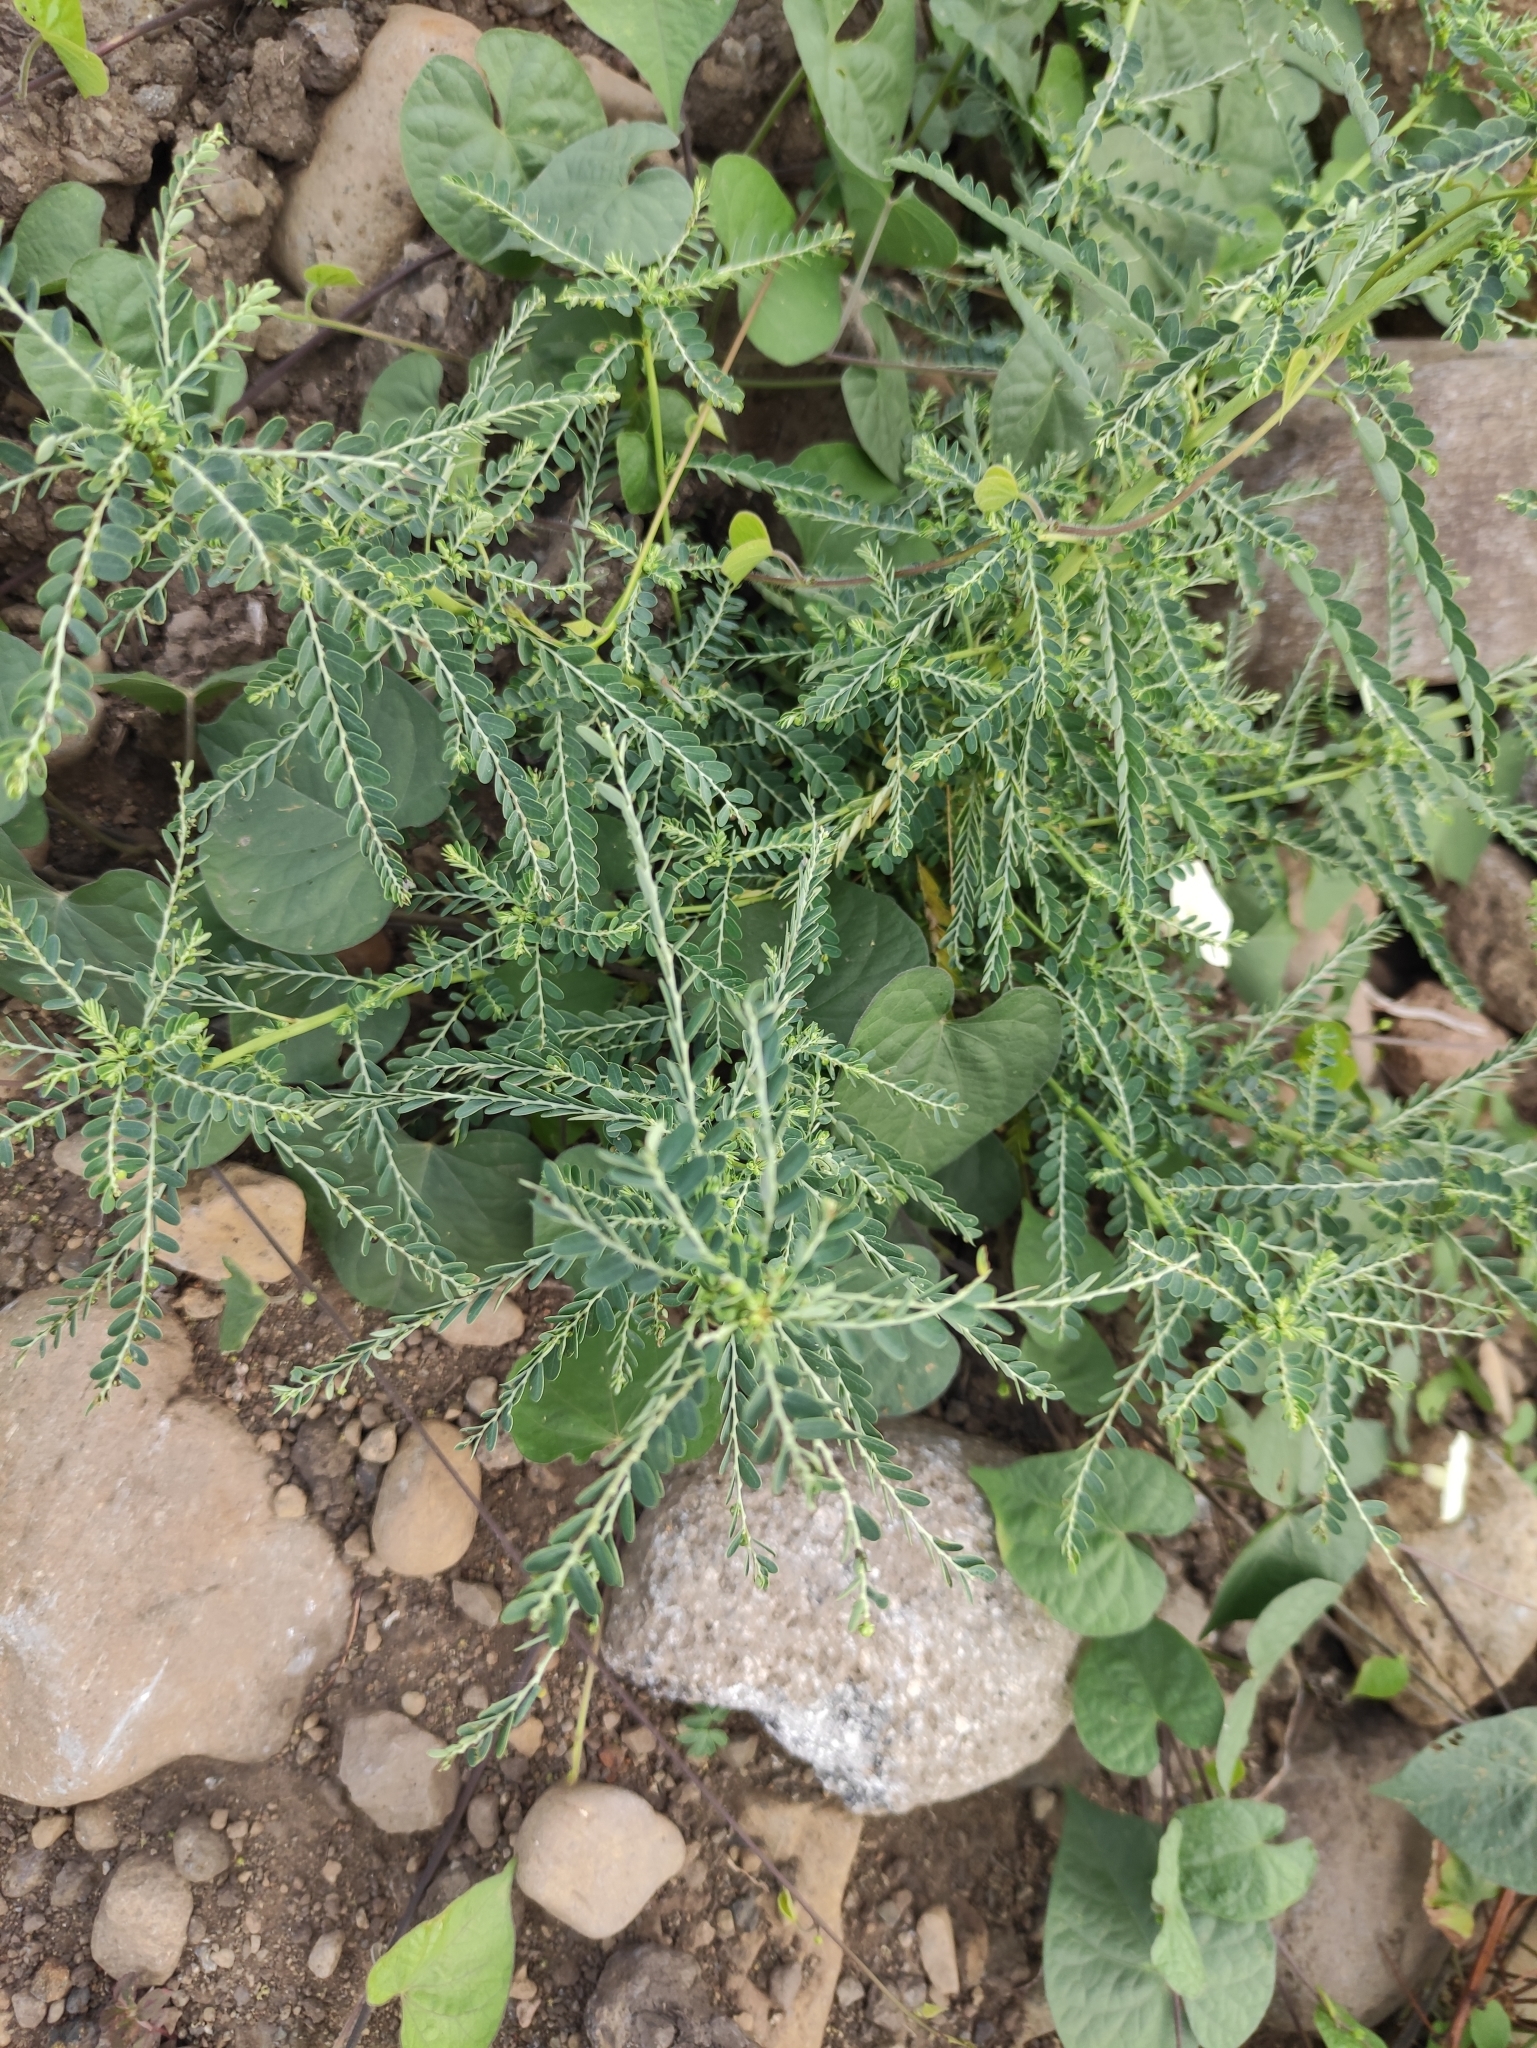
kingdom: Plantae
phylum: Tracheophyta
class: Magnoliopsida
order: Malpighiales
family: Phyllanthaceae
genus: Phyllanthus
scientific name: Phyllanthus amarus
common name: Carry me seed
